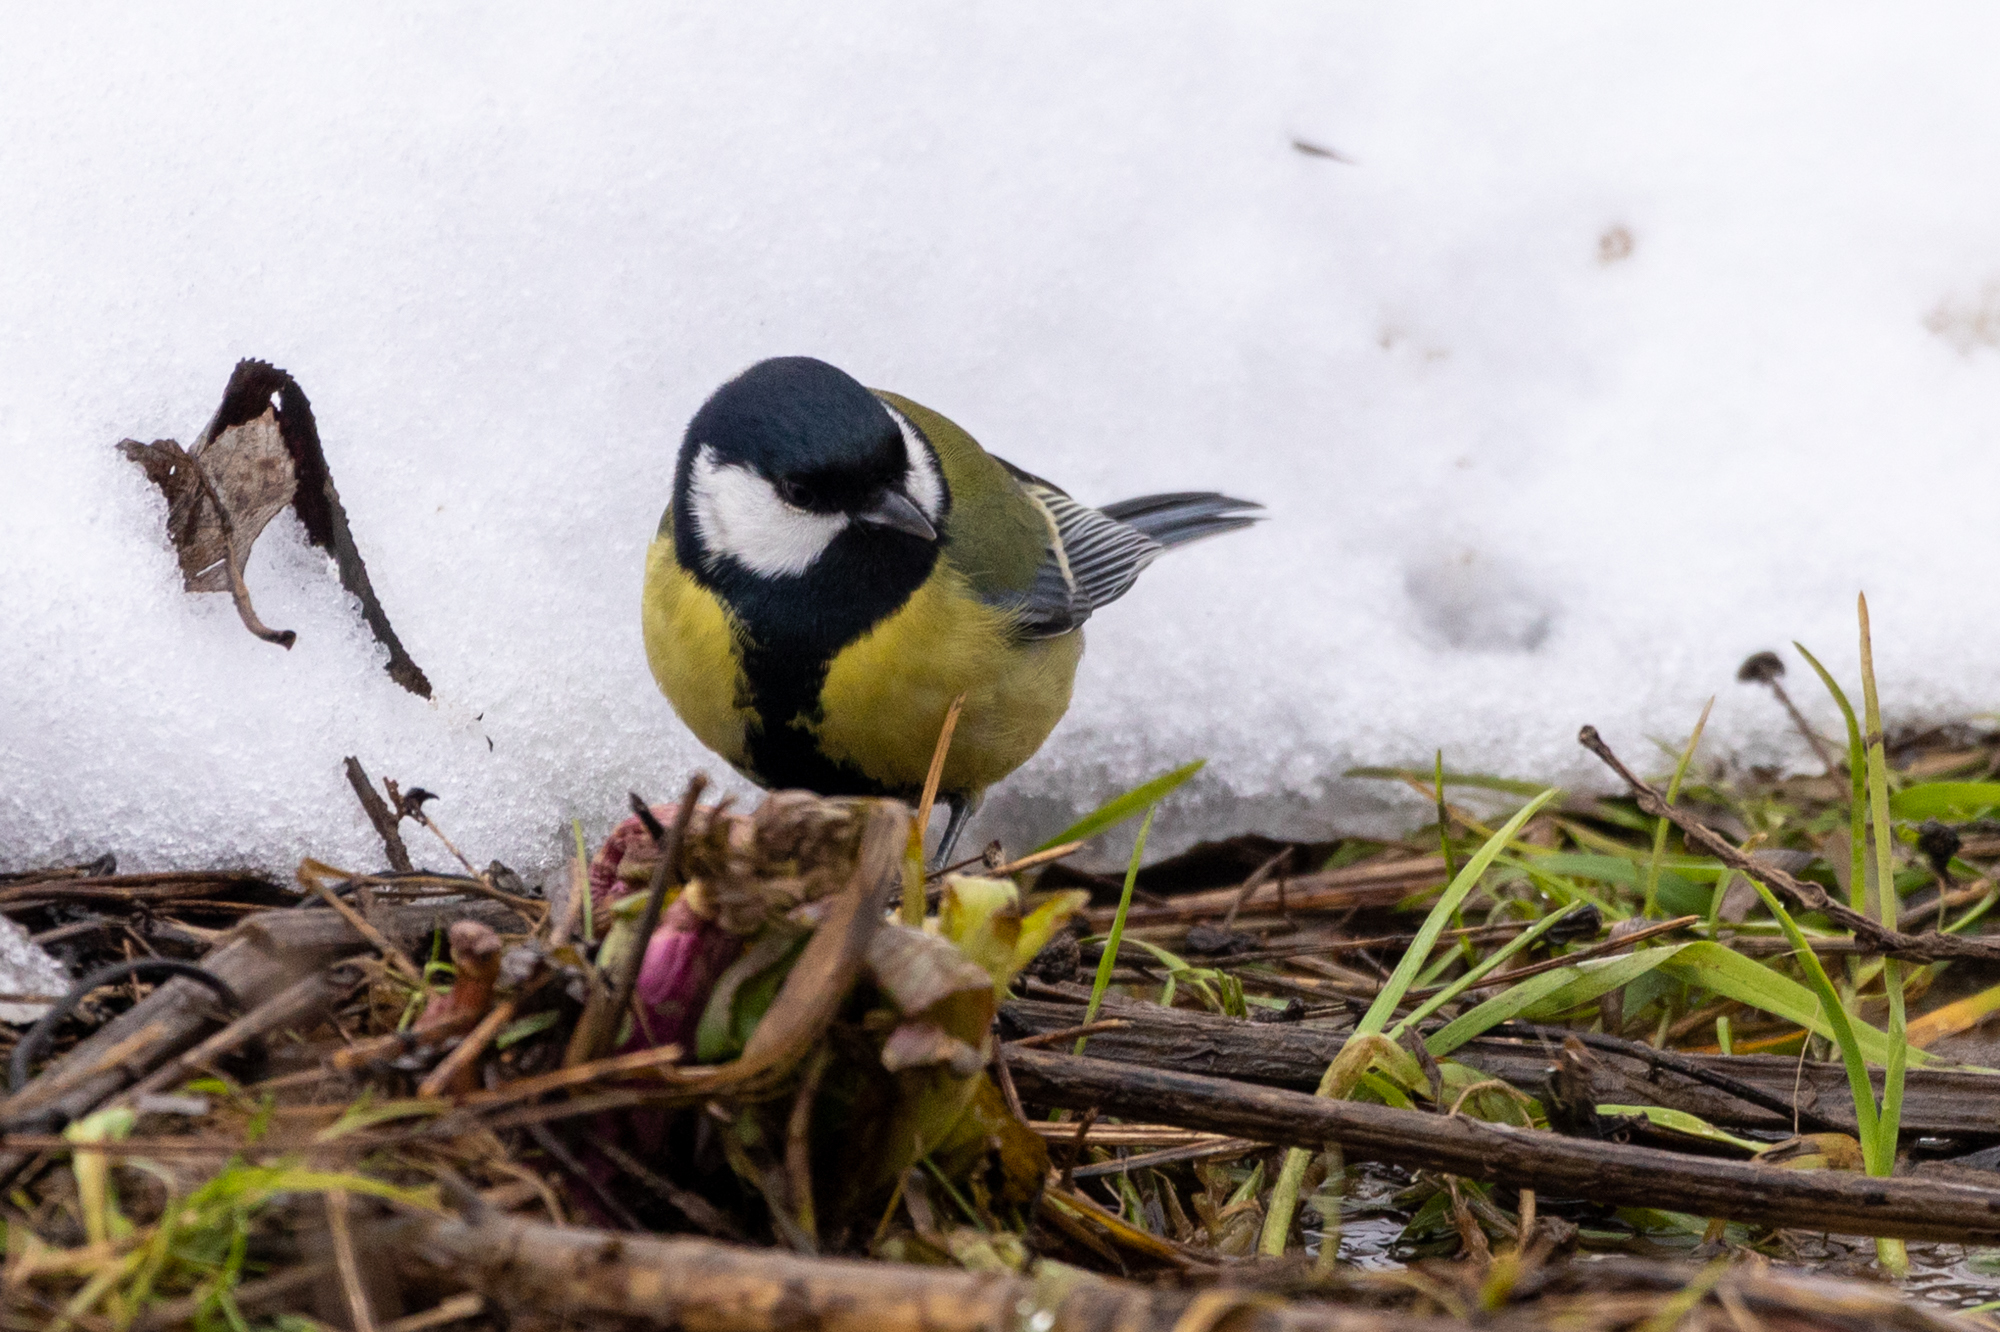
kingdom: Animalia
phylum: Chordata
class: Aves
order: Passeriformes
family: Paridae
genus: Parus
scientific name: Parus major
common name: Great tit
